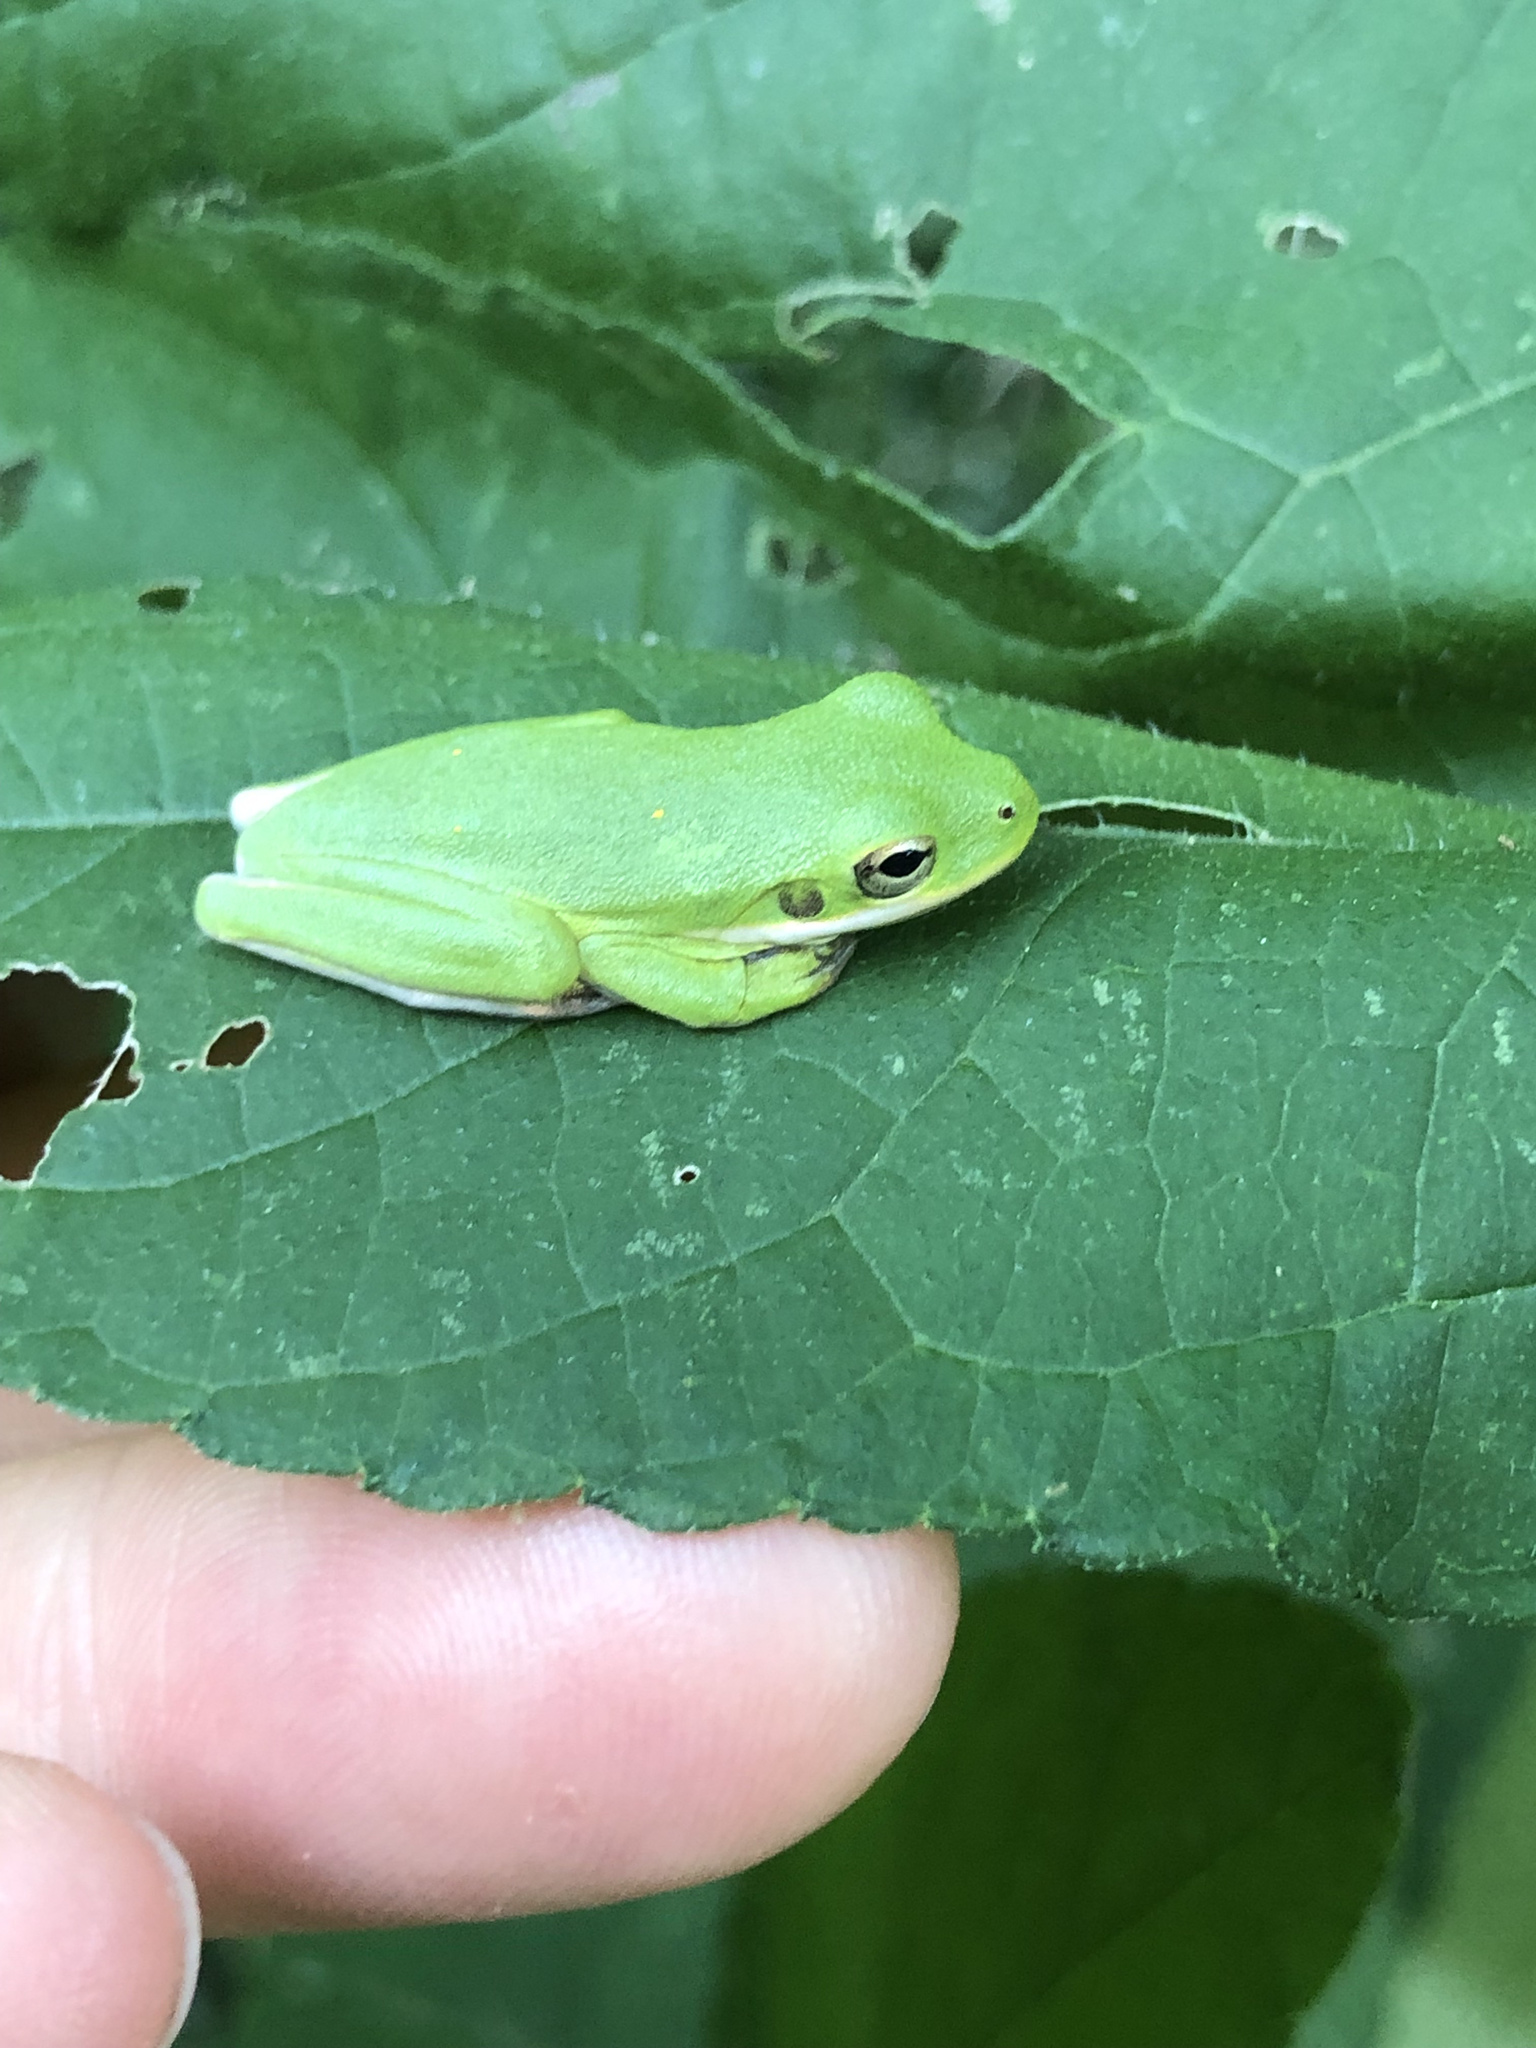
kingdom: Animalia
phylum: Chordata
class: Amphibia
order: Anura
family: Hylidae
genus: Dryophytes
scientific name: Dryophytes cinereus
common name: Green treefrog
